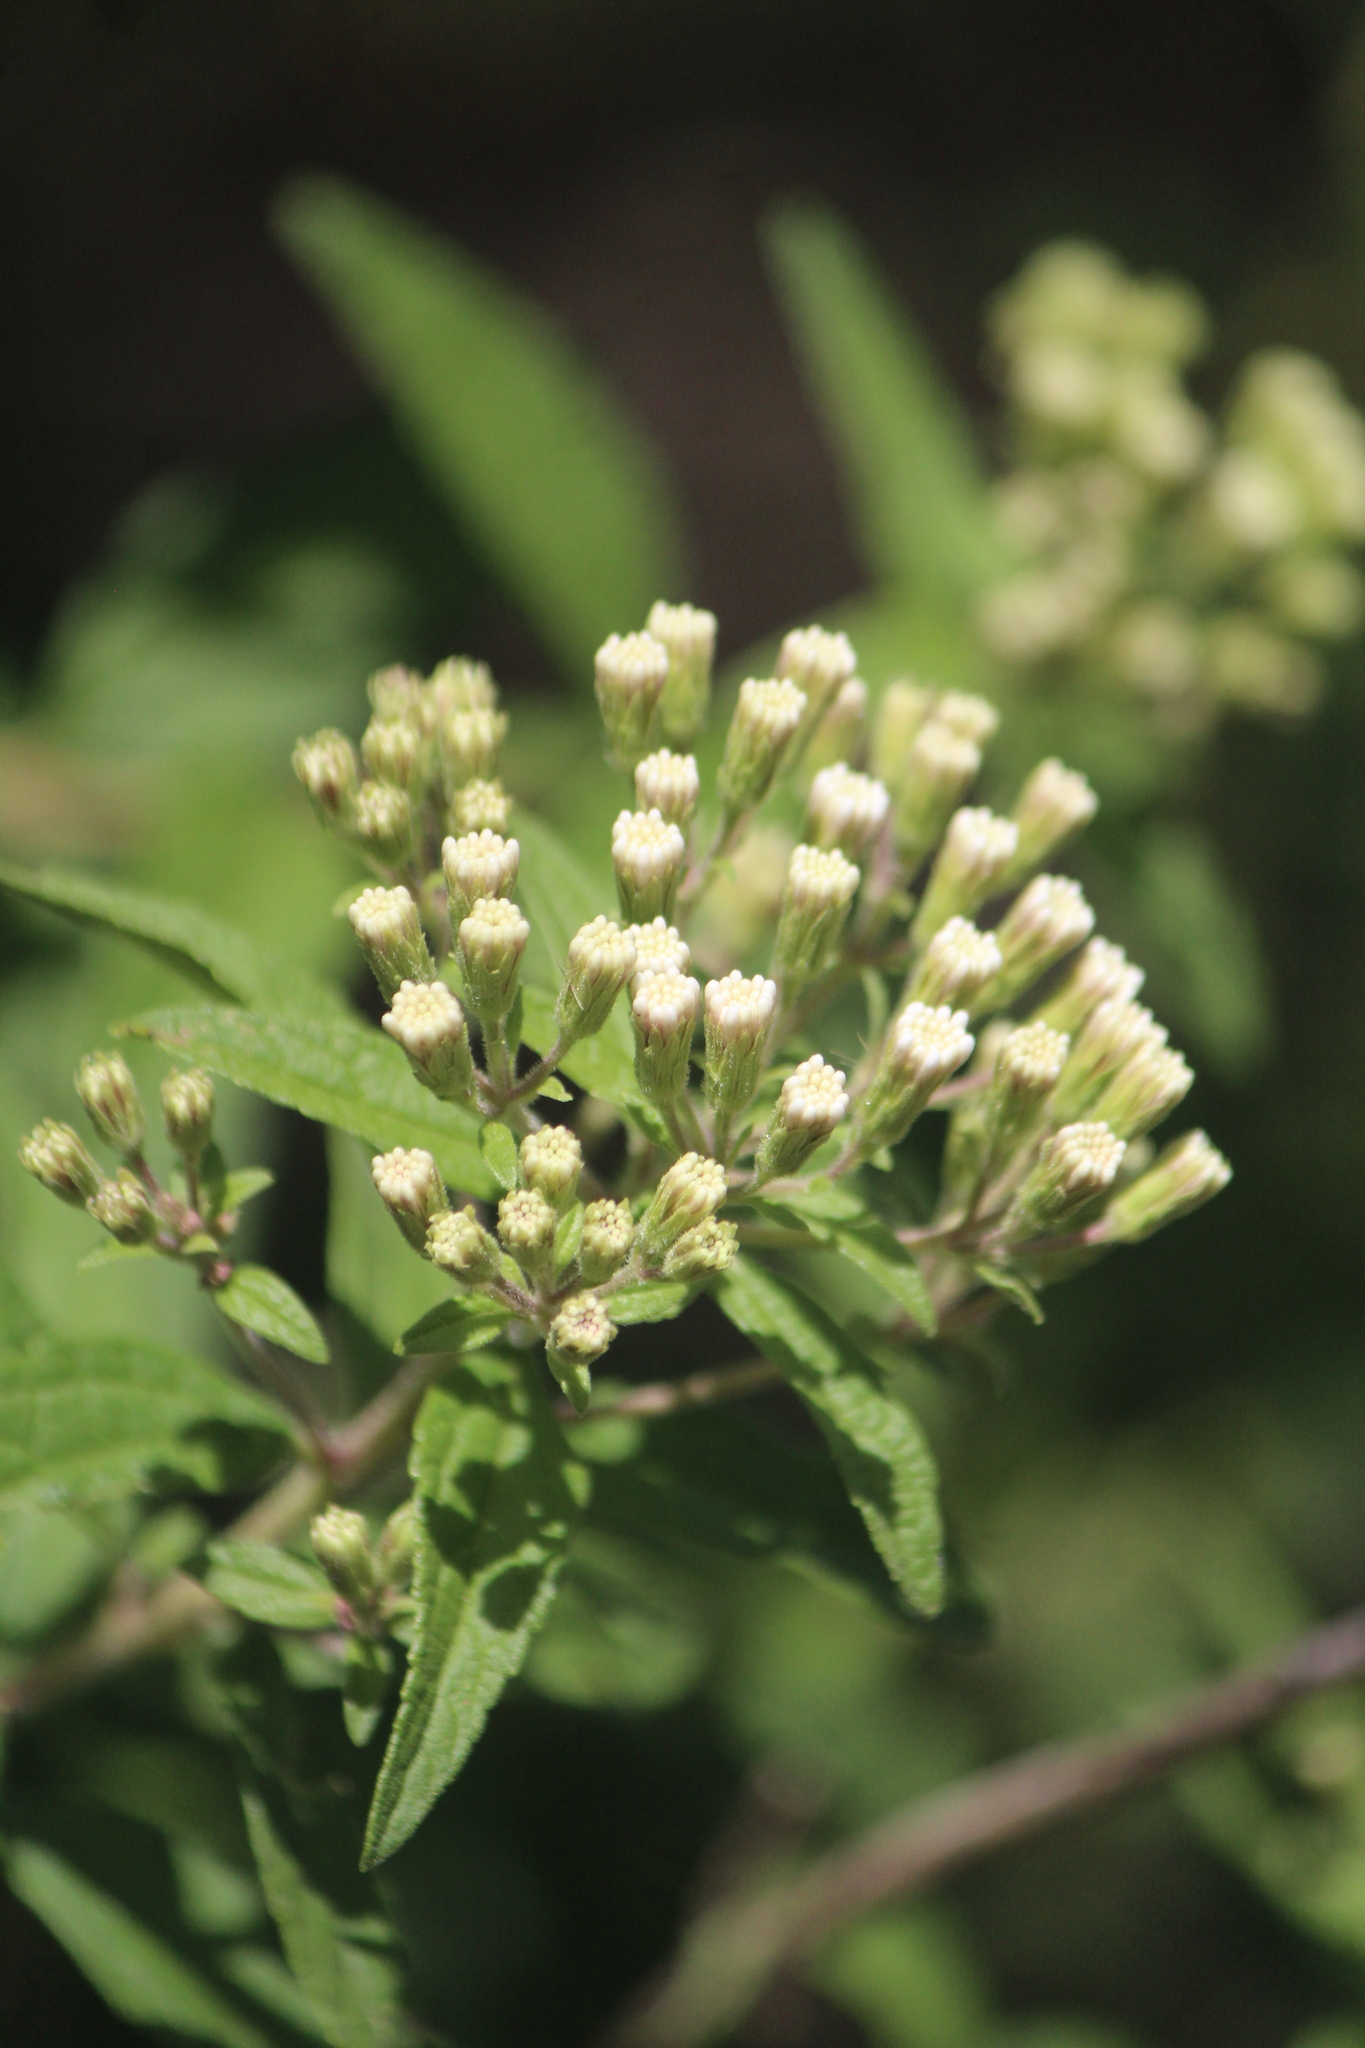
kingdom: Plantae
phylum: Tracheophyta
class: Magnoliopsida
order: Asterales
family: Asteraceae
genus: Ageratina
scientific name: Ageratina brevipes
